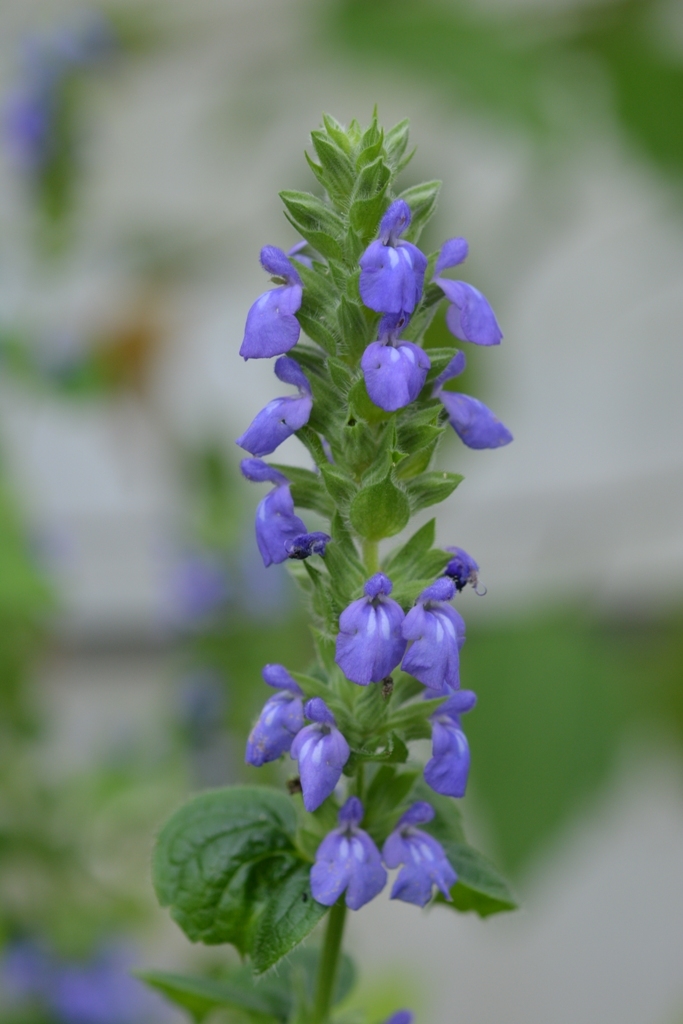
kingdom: Plantae
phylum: Tracheophyta
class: Magnoliopsida
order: Lamiales
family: Lamiaceae
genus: Salvia
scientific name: Salvia hispanica
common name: Chia
